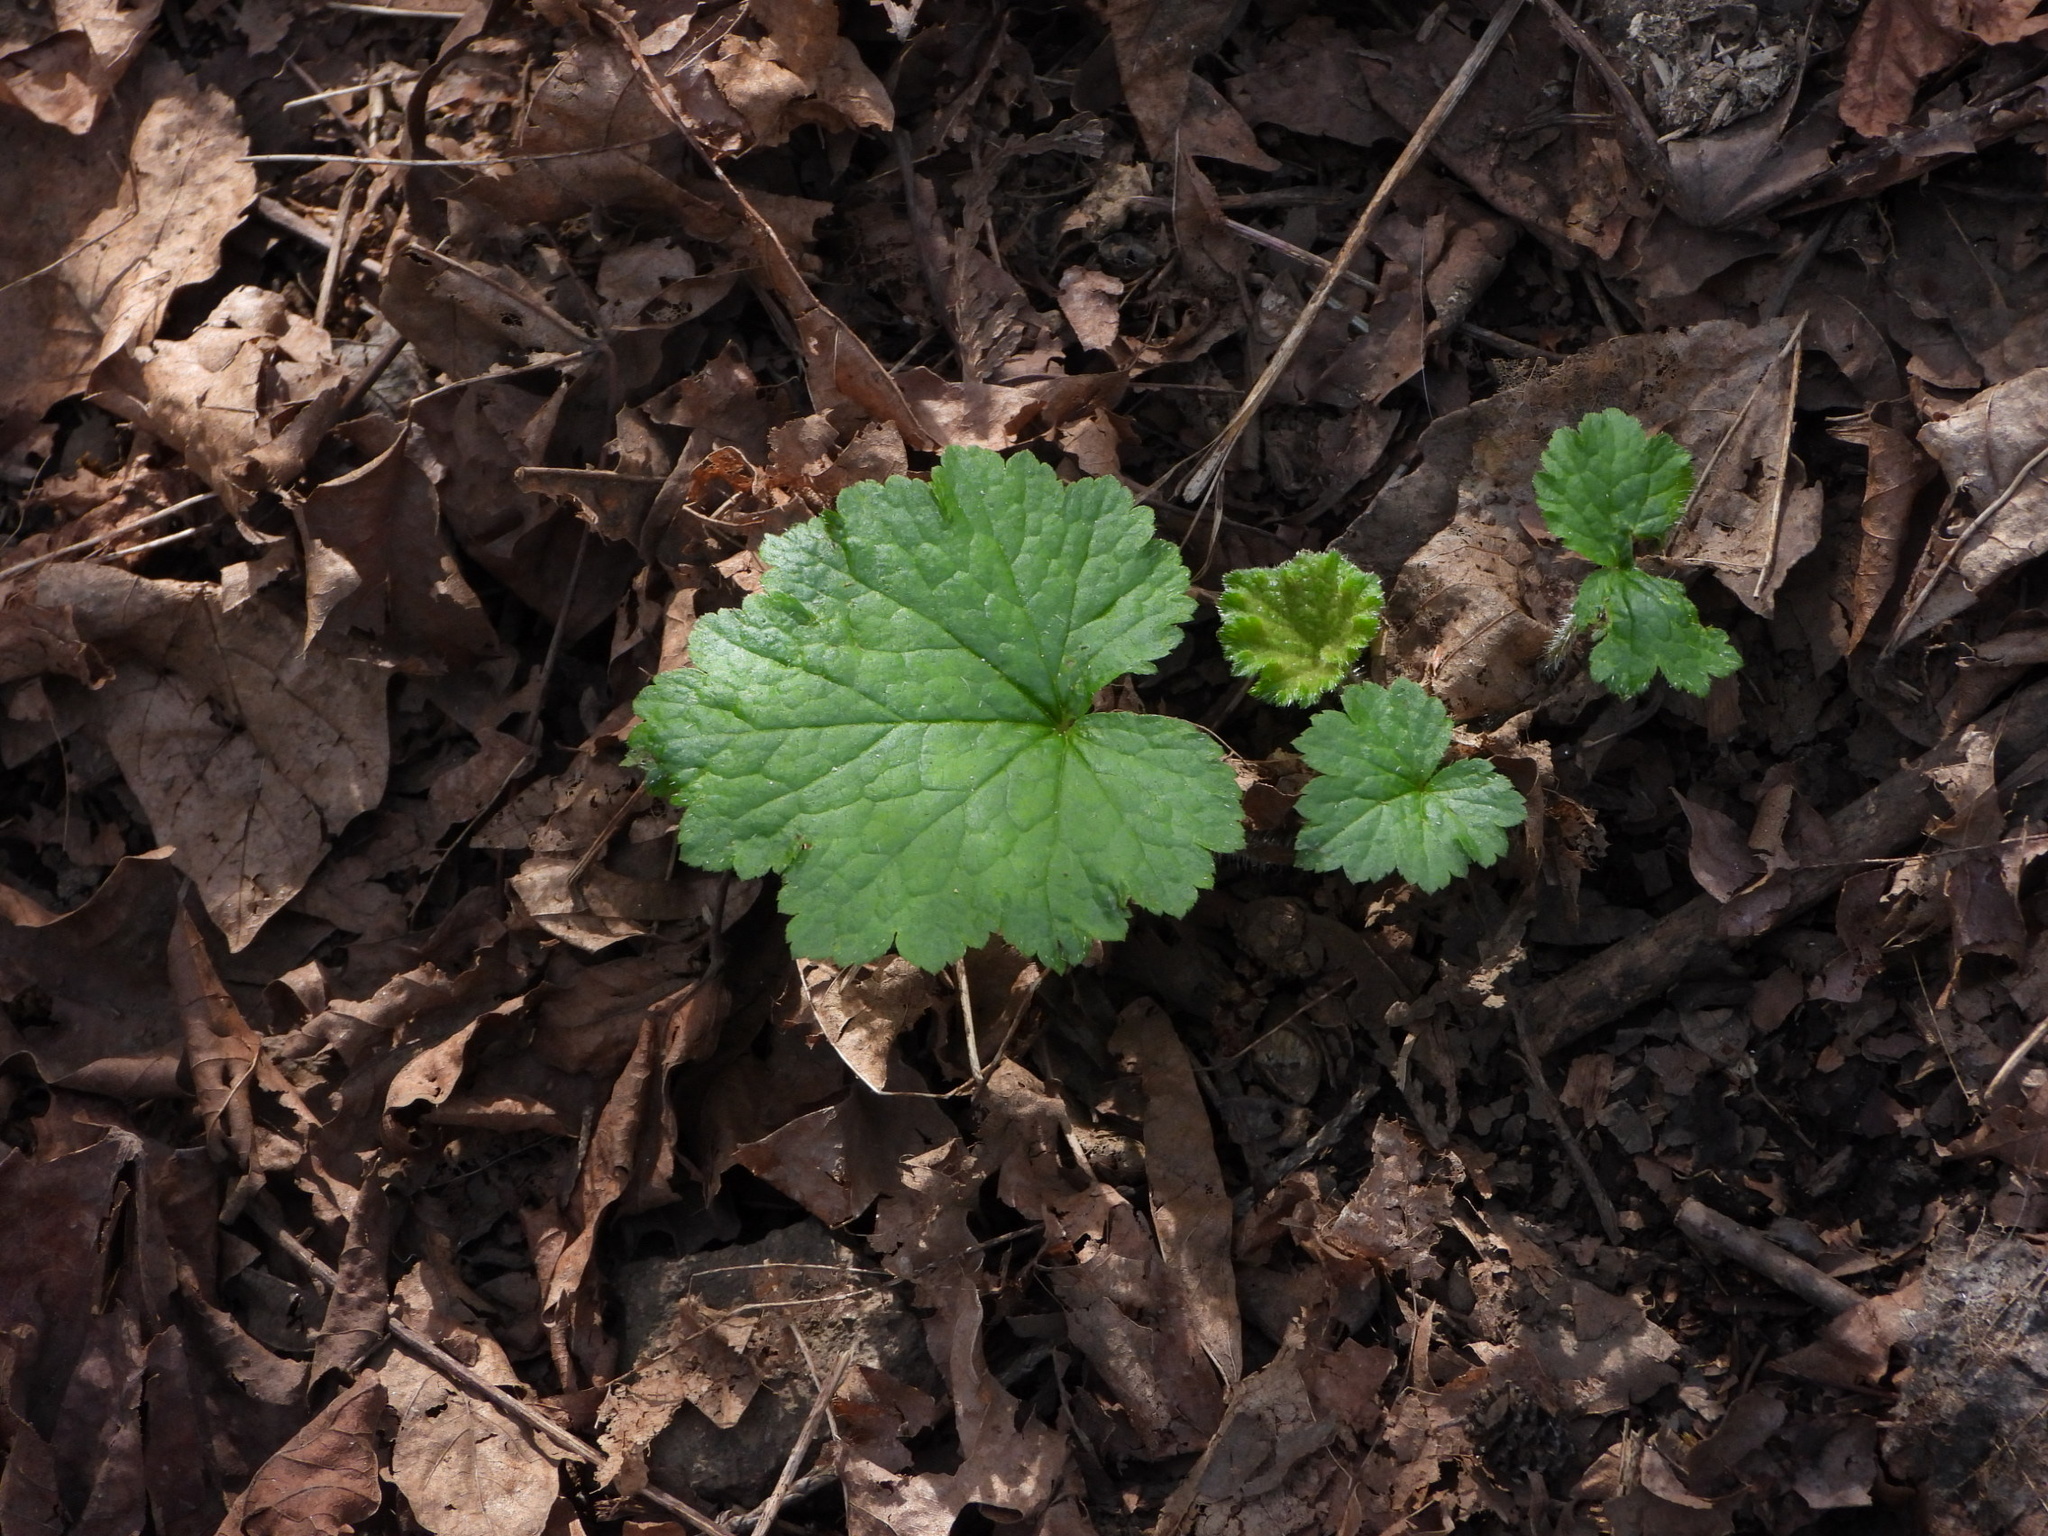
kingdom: Plantae
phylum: Tracheophyta
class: Magnoliopsida
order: Saxifragales
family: Saxifragaceae
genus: Tellima
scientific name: Tellima grandiflora
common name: Fringecups
